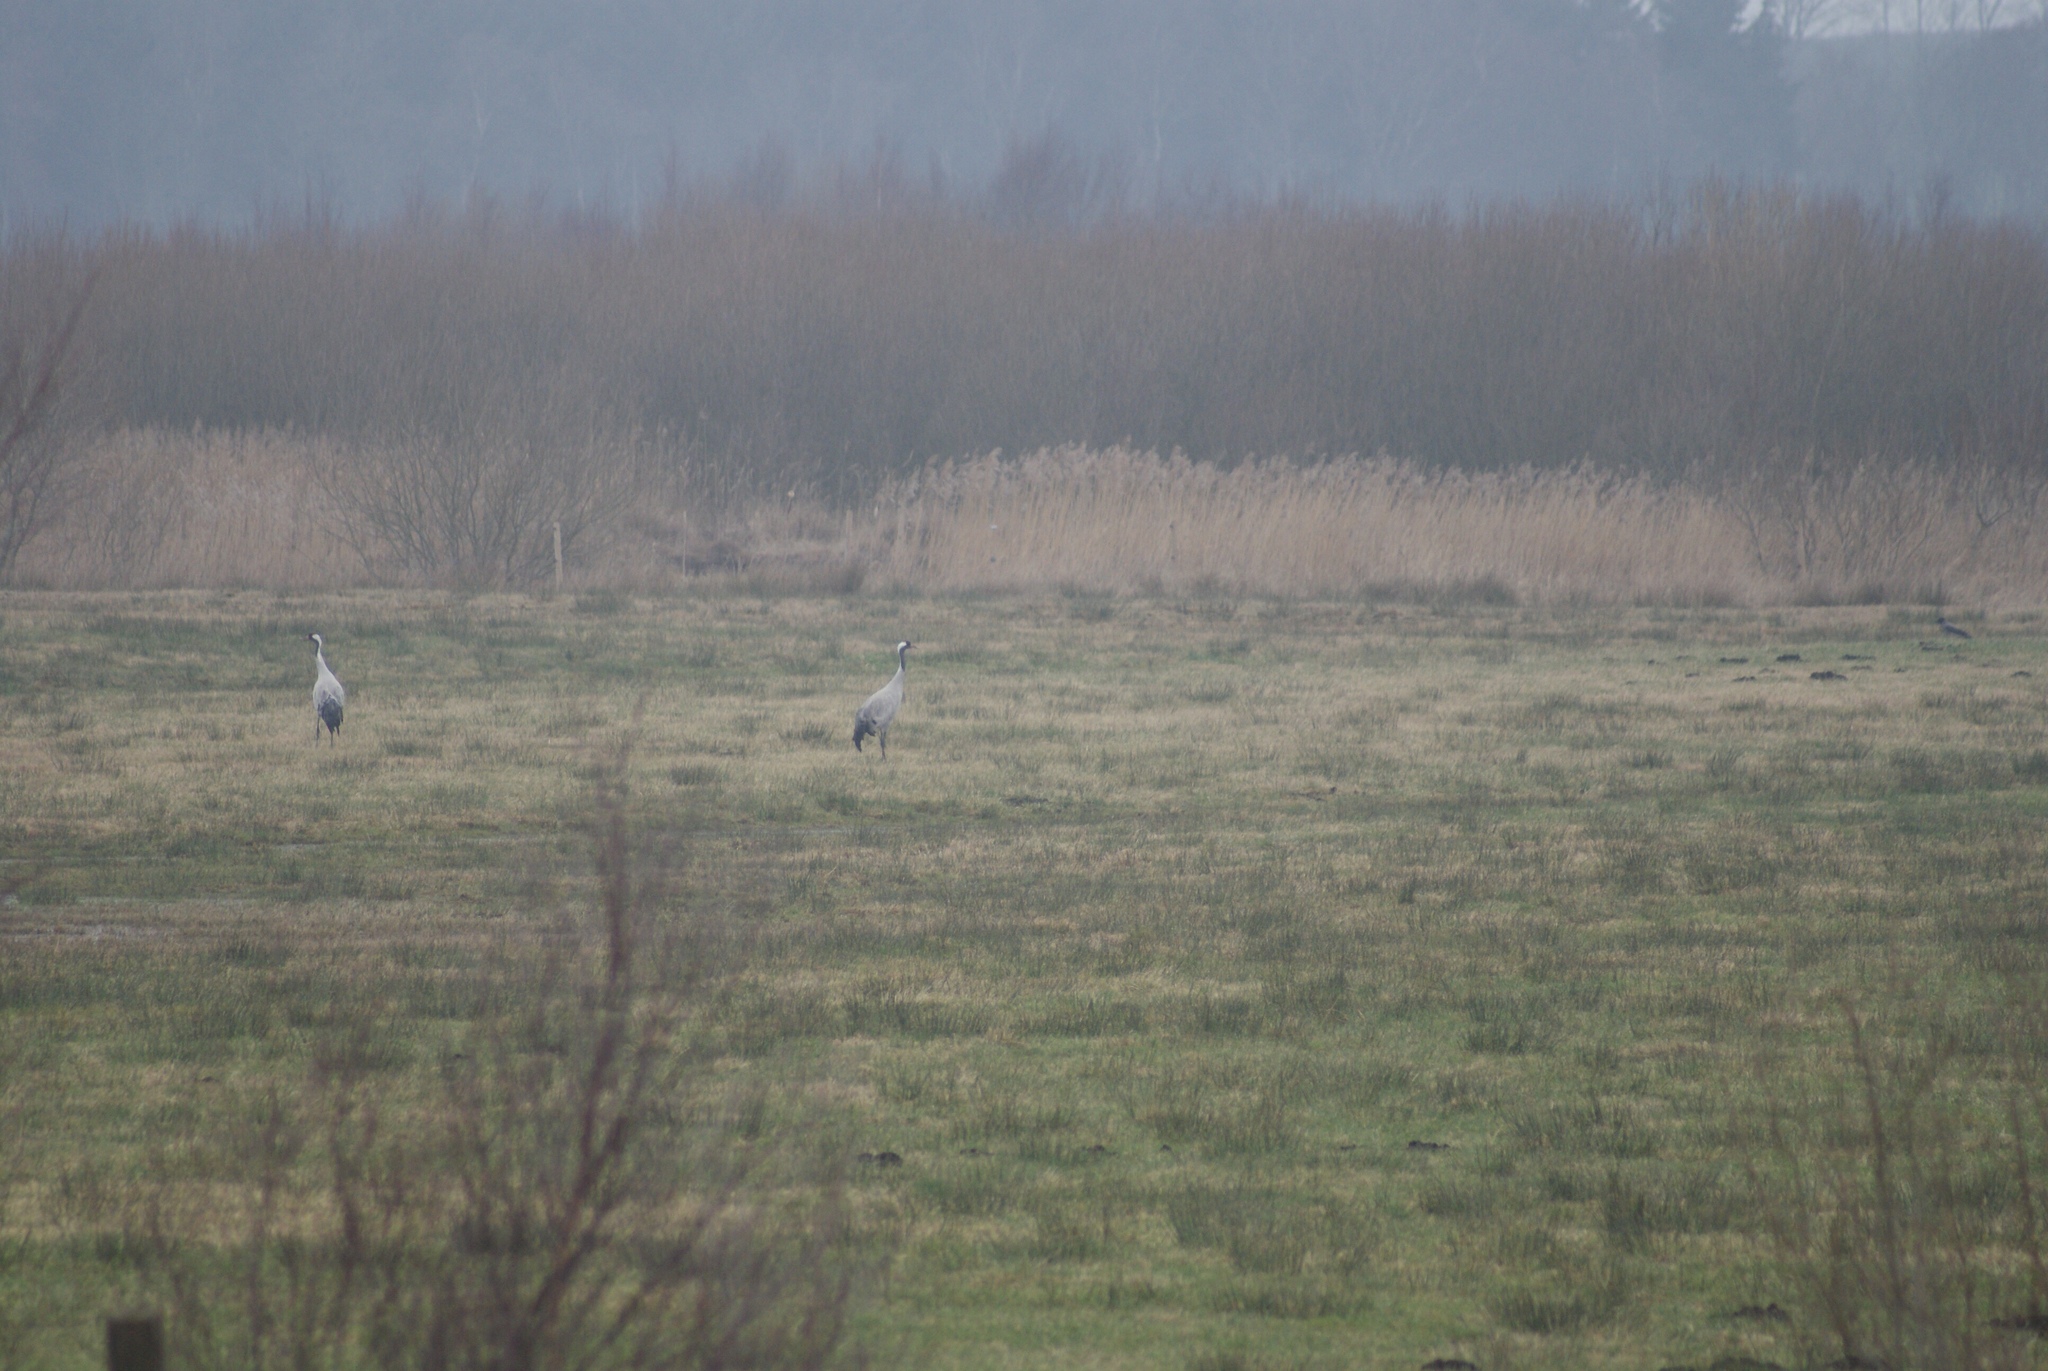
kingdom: Animalia
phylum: Chordata
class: Aves
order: Gruiformes
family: Gruidae
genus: Grus
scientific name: Grus grus
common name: Common crane
